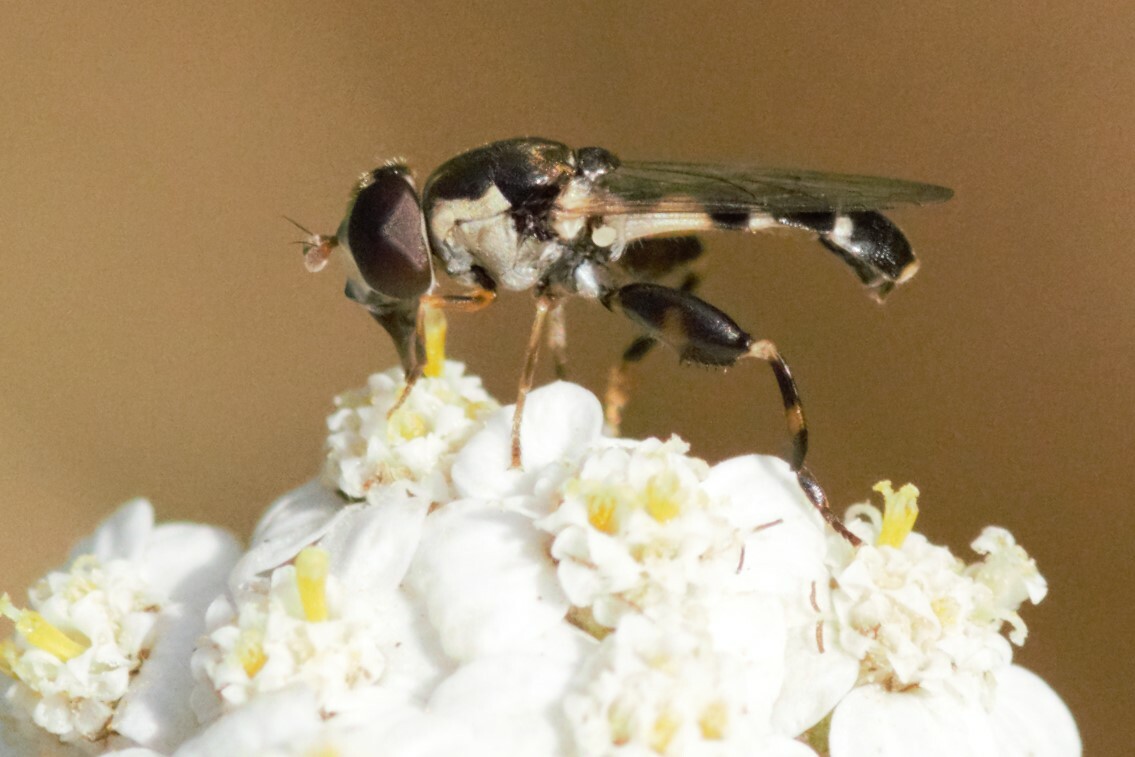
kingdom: Animalia
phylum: Arthropoda
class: Insecta
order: Diptera
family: Syrphidae
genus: Syritta
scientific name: Syritta pipiens
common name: Hover fly
